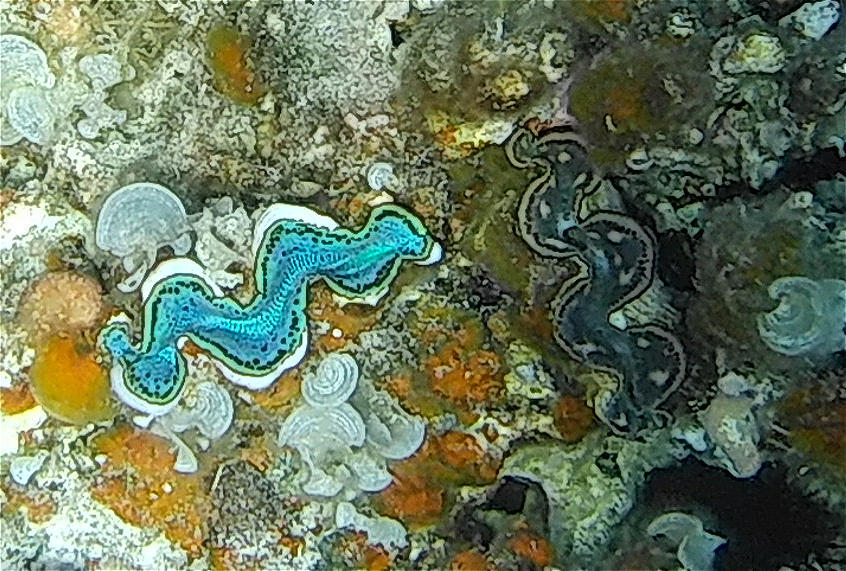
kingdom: Animalia
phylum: Mollusca
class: Bivalvia
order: Cardiida
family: Cardiidae
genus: Tridacna
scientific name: Tridacna maxima
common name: Small giant clam
